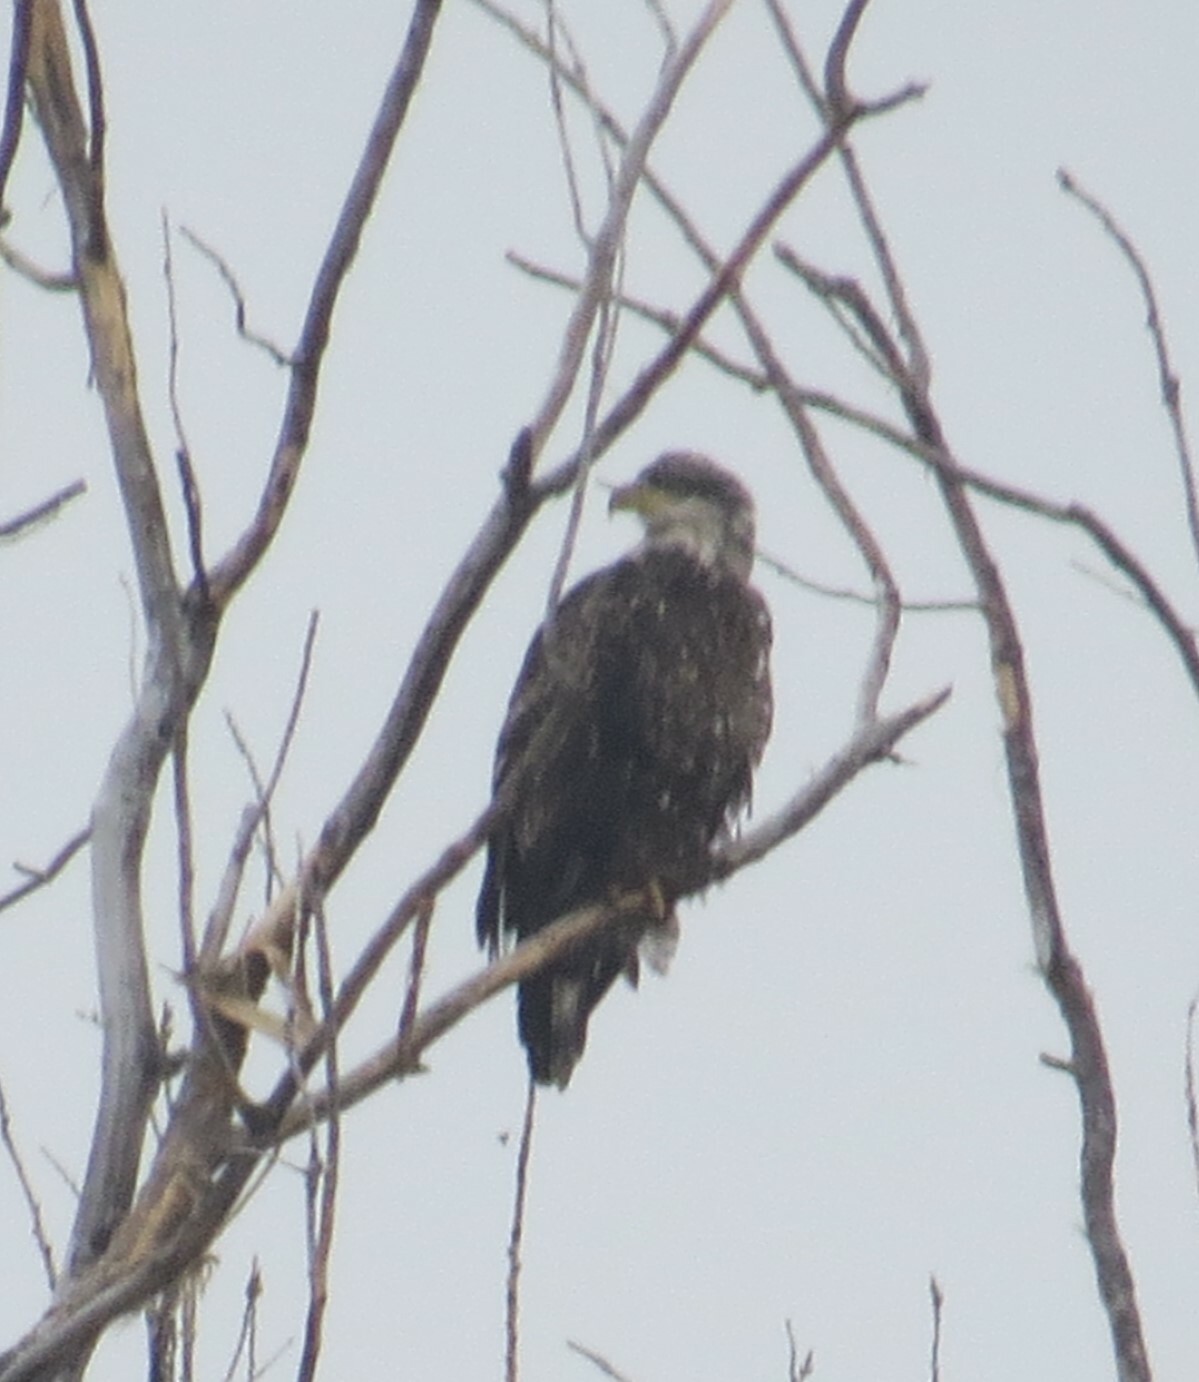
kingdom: Animalia
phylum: Chordata
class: Aves
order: Accipitriformes
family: Accipitridae
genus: Haliaeetus
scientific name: Haliaeetus leucocephalus
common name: Bald eagle
